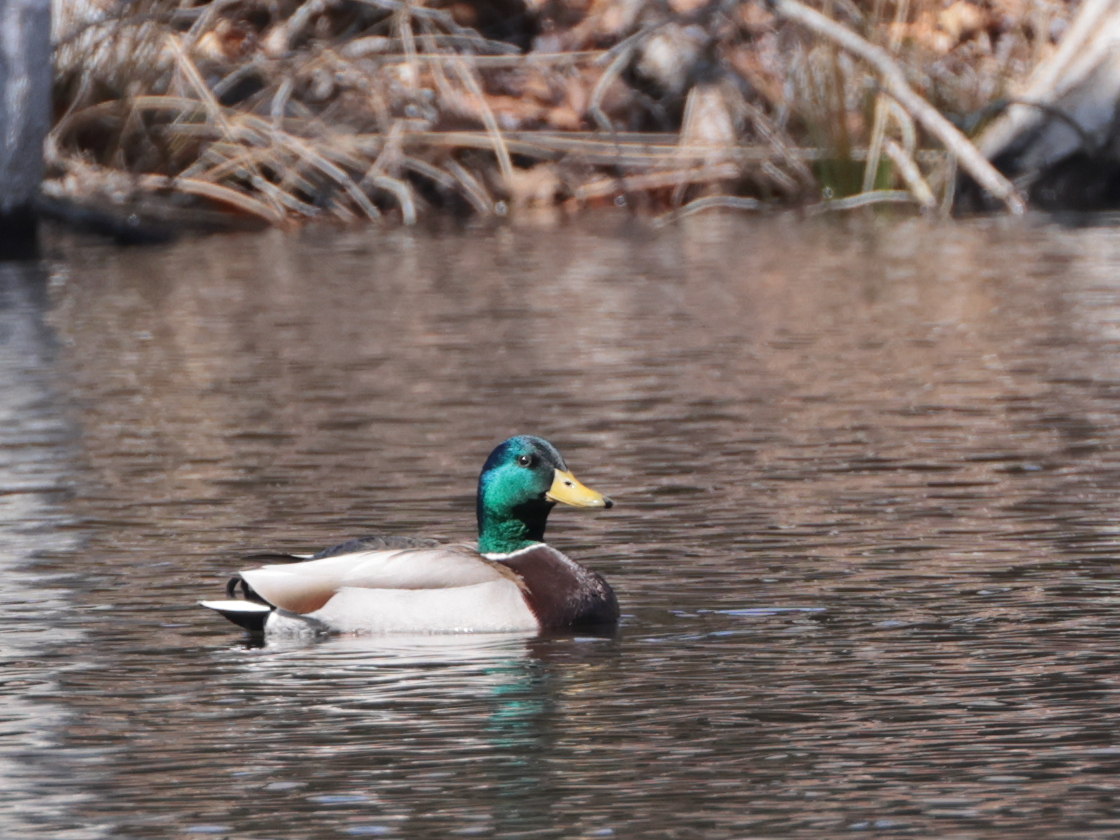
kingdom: Animalia
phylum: Chordata
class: Aves
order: Anseriformes
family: Anatidae
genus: Anas
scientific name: Anas platyrhynchos
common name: Mallard
